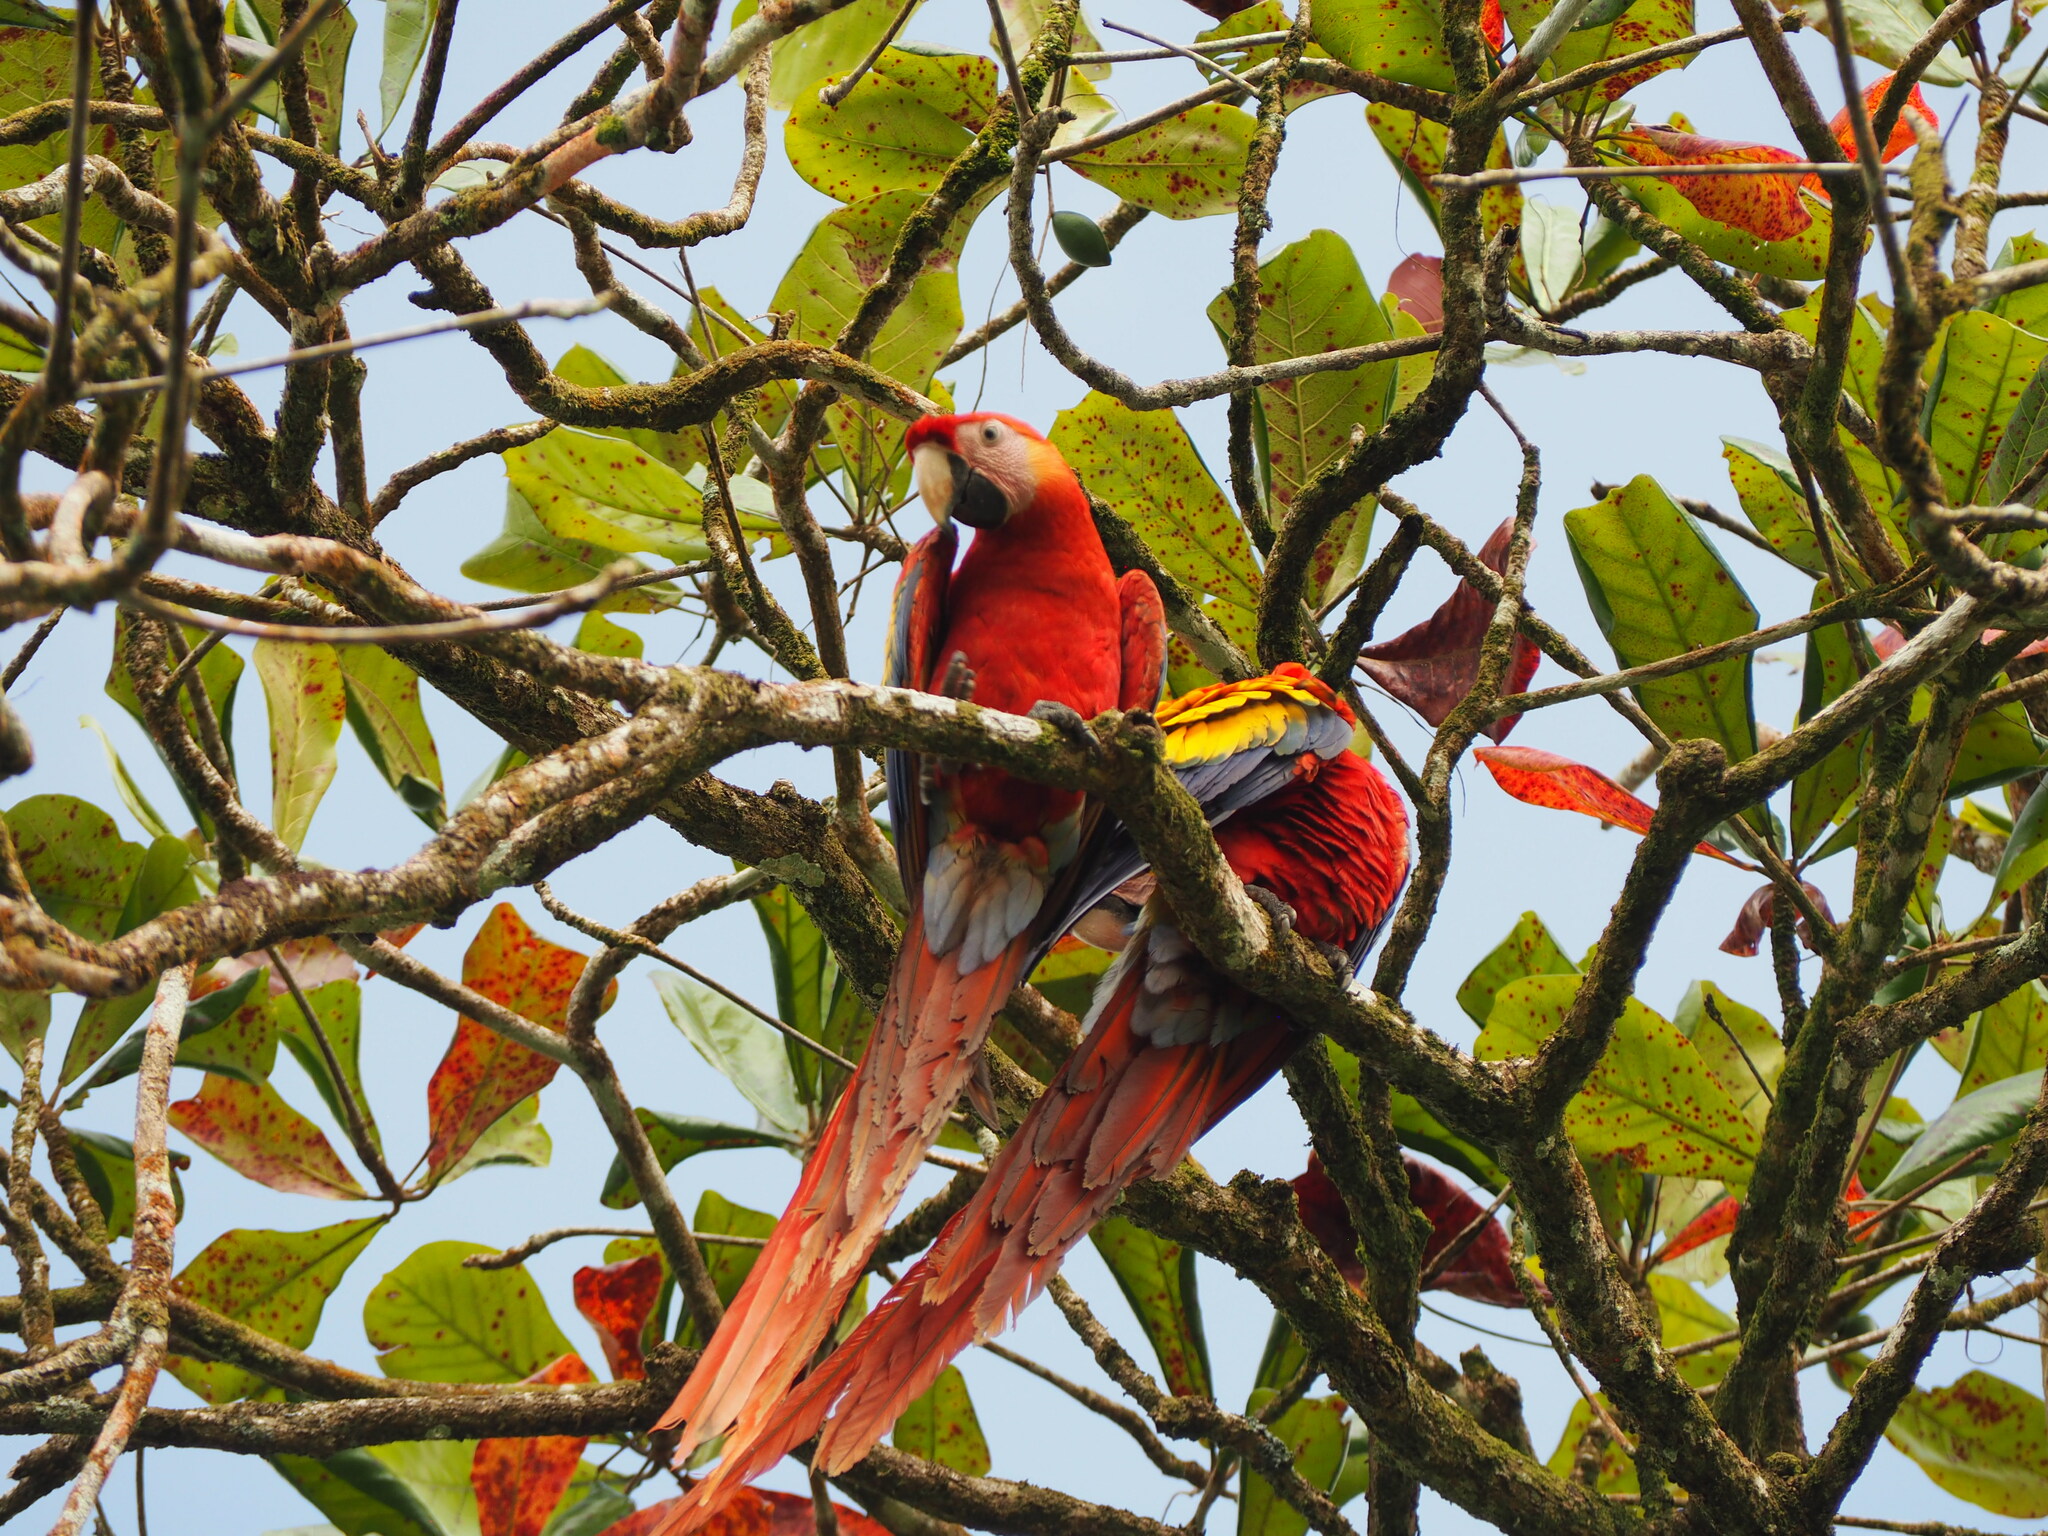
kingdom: Animalia
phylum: Chordata
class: Aves
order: Psittaciformes
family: Psittacidae
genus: Ara
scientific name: Ara macao
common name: Scarlet macaw
